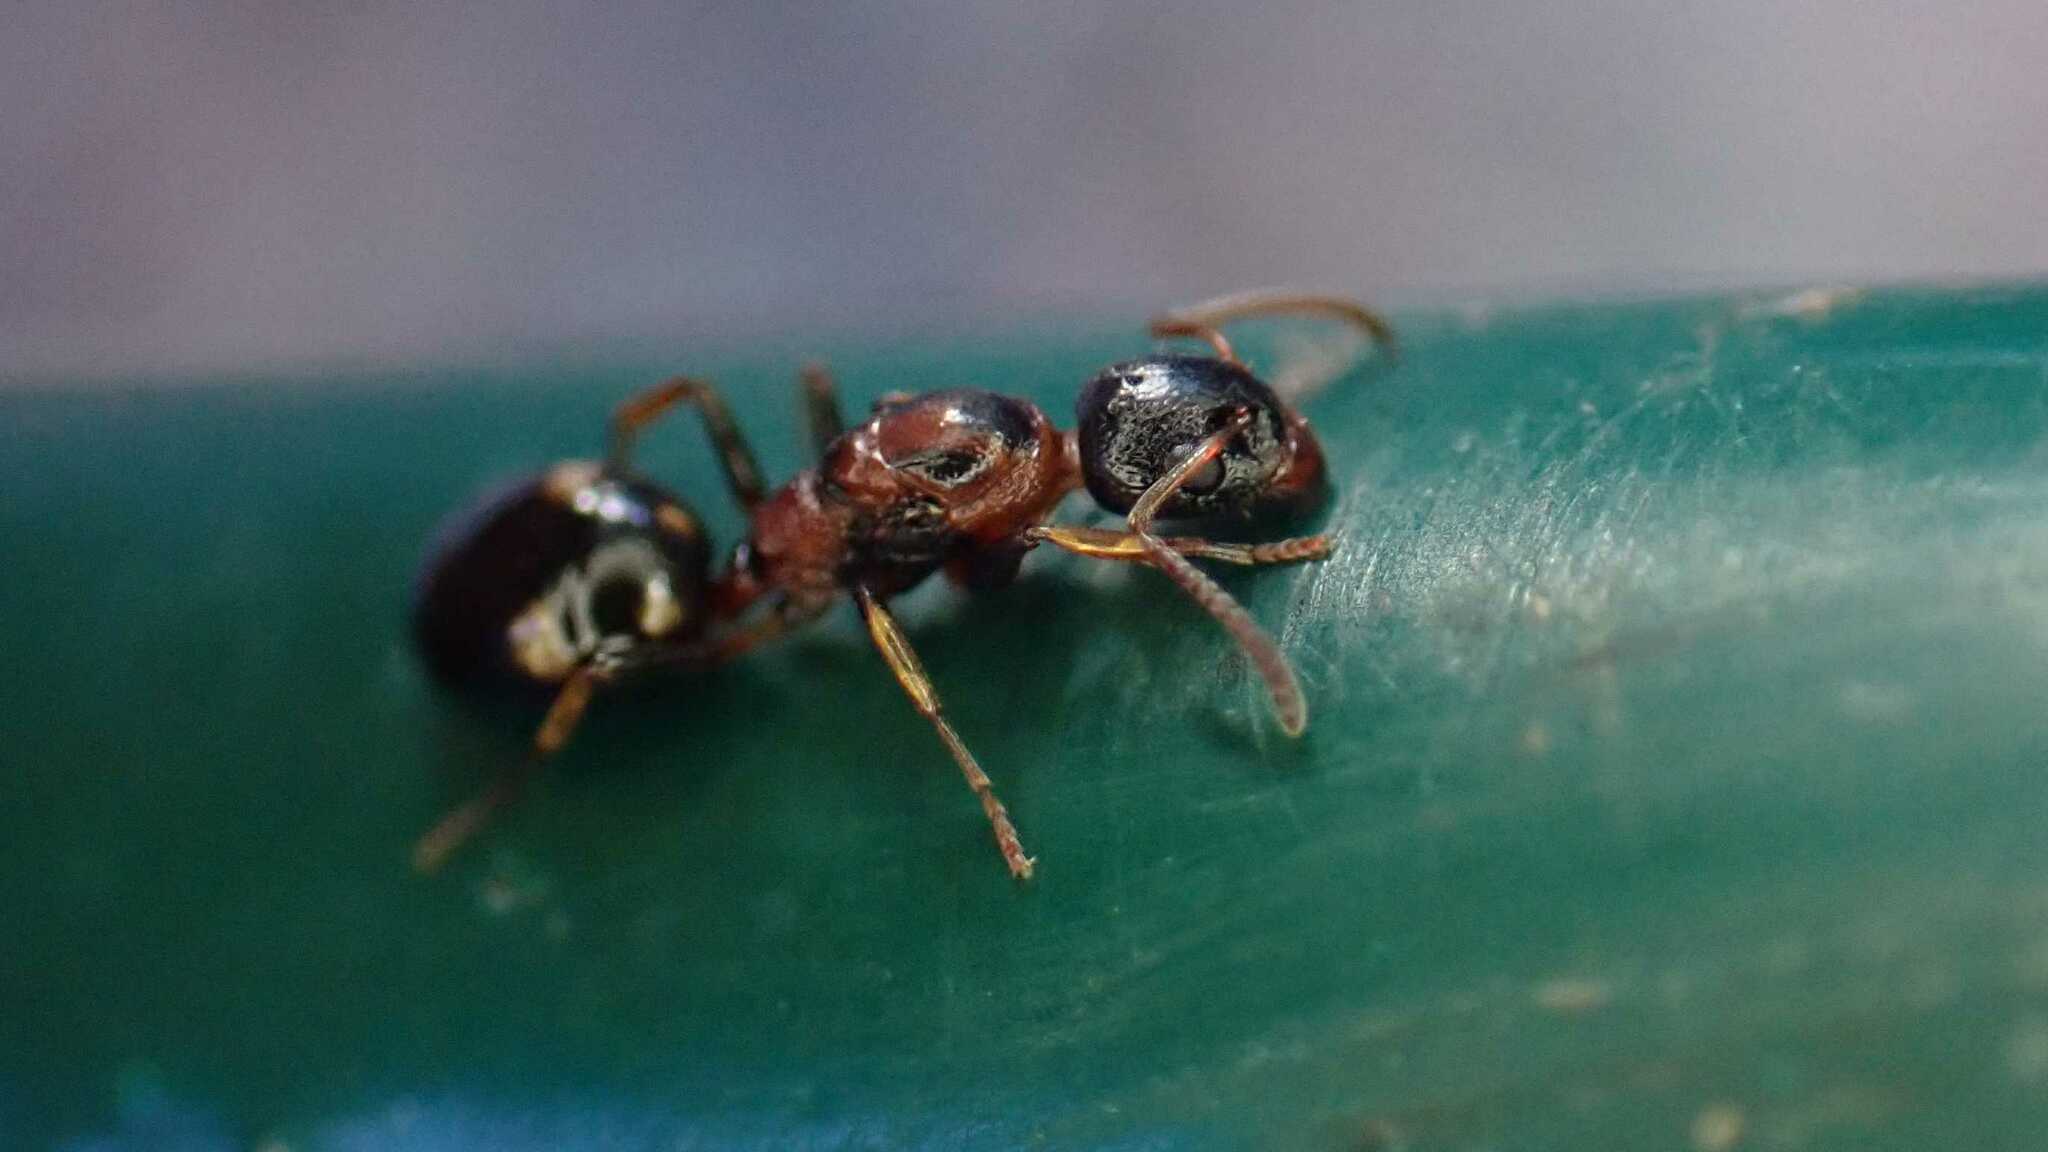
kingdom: Animalia
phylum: Arthropoda
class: Insecta
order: Hymenoptera
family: Formicidae
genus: Dolichoderus
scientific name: Dolichoderus quadripunctatus
